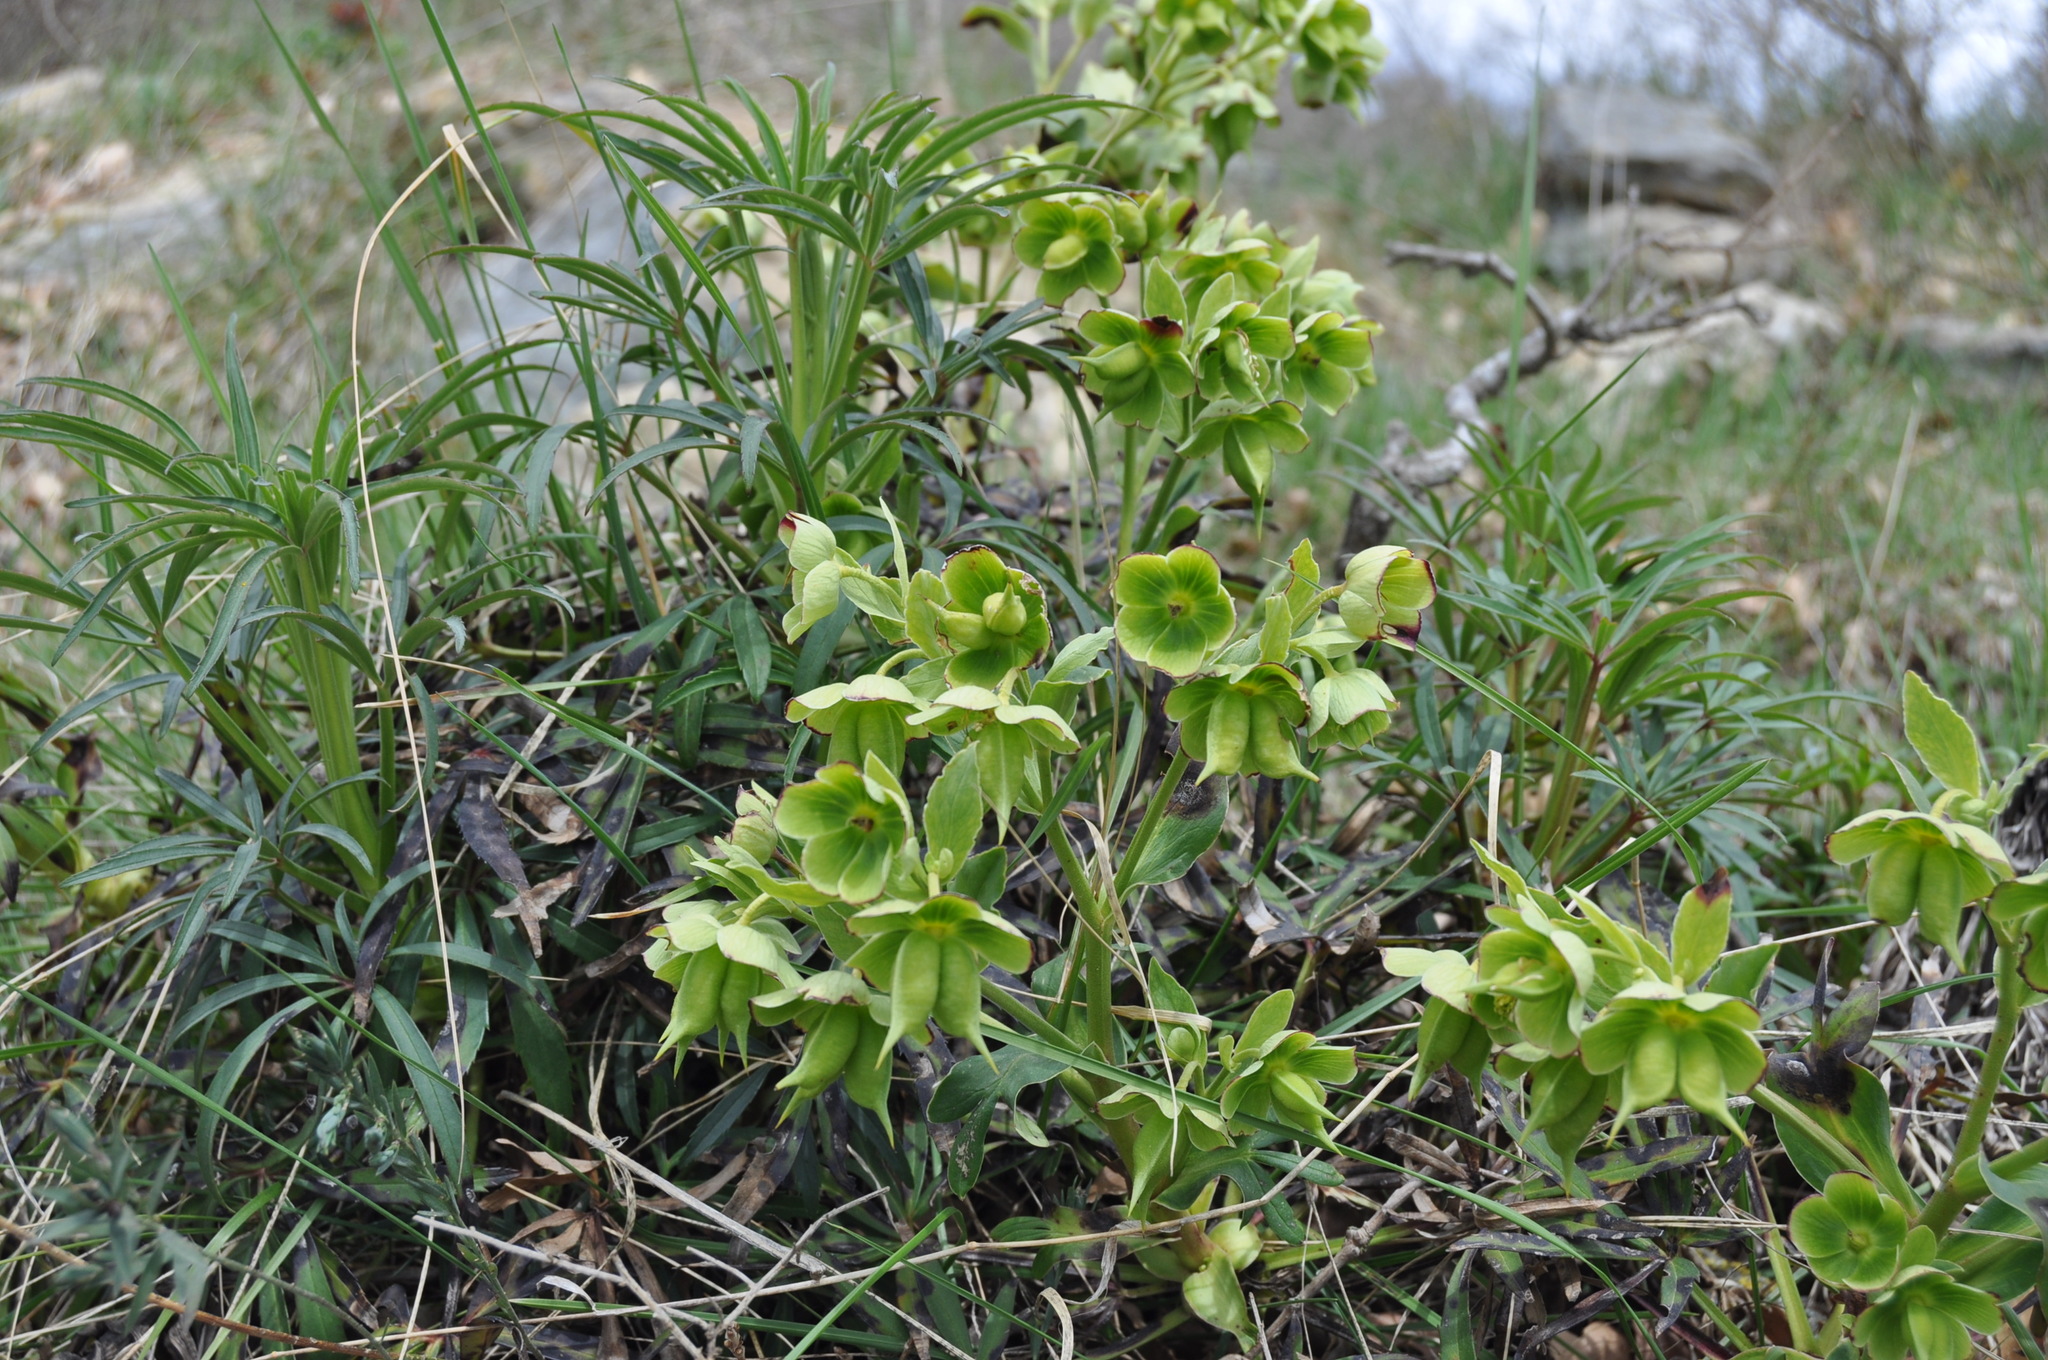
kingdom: Plantae
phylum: Tracheophyta
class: Magnoliopsida
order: Ranunculales
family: Ranunculaceae
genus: Helleborus
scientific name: Helleborus foetidus
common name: Stinking hellebore
